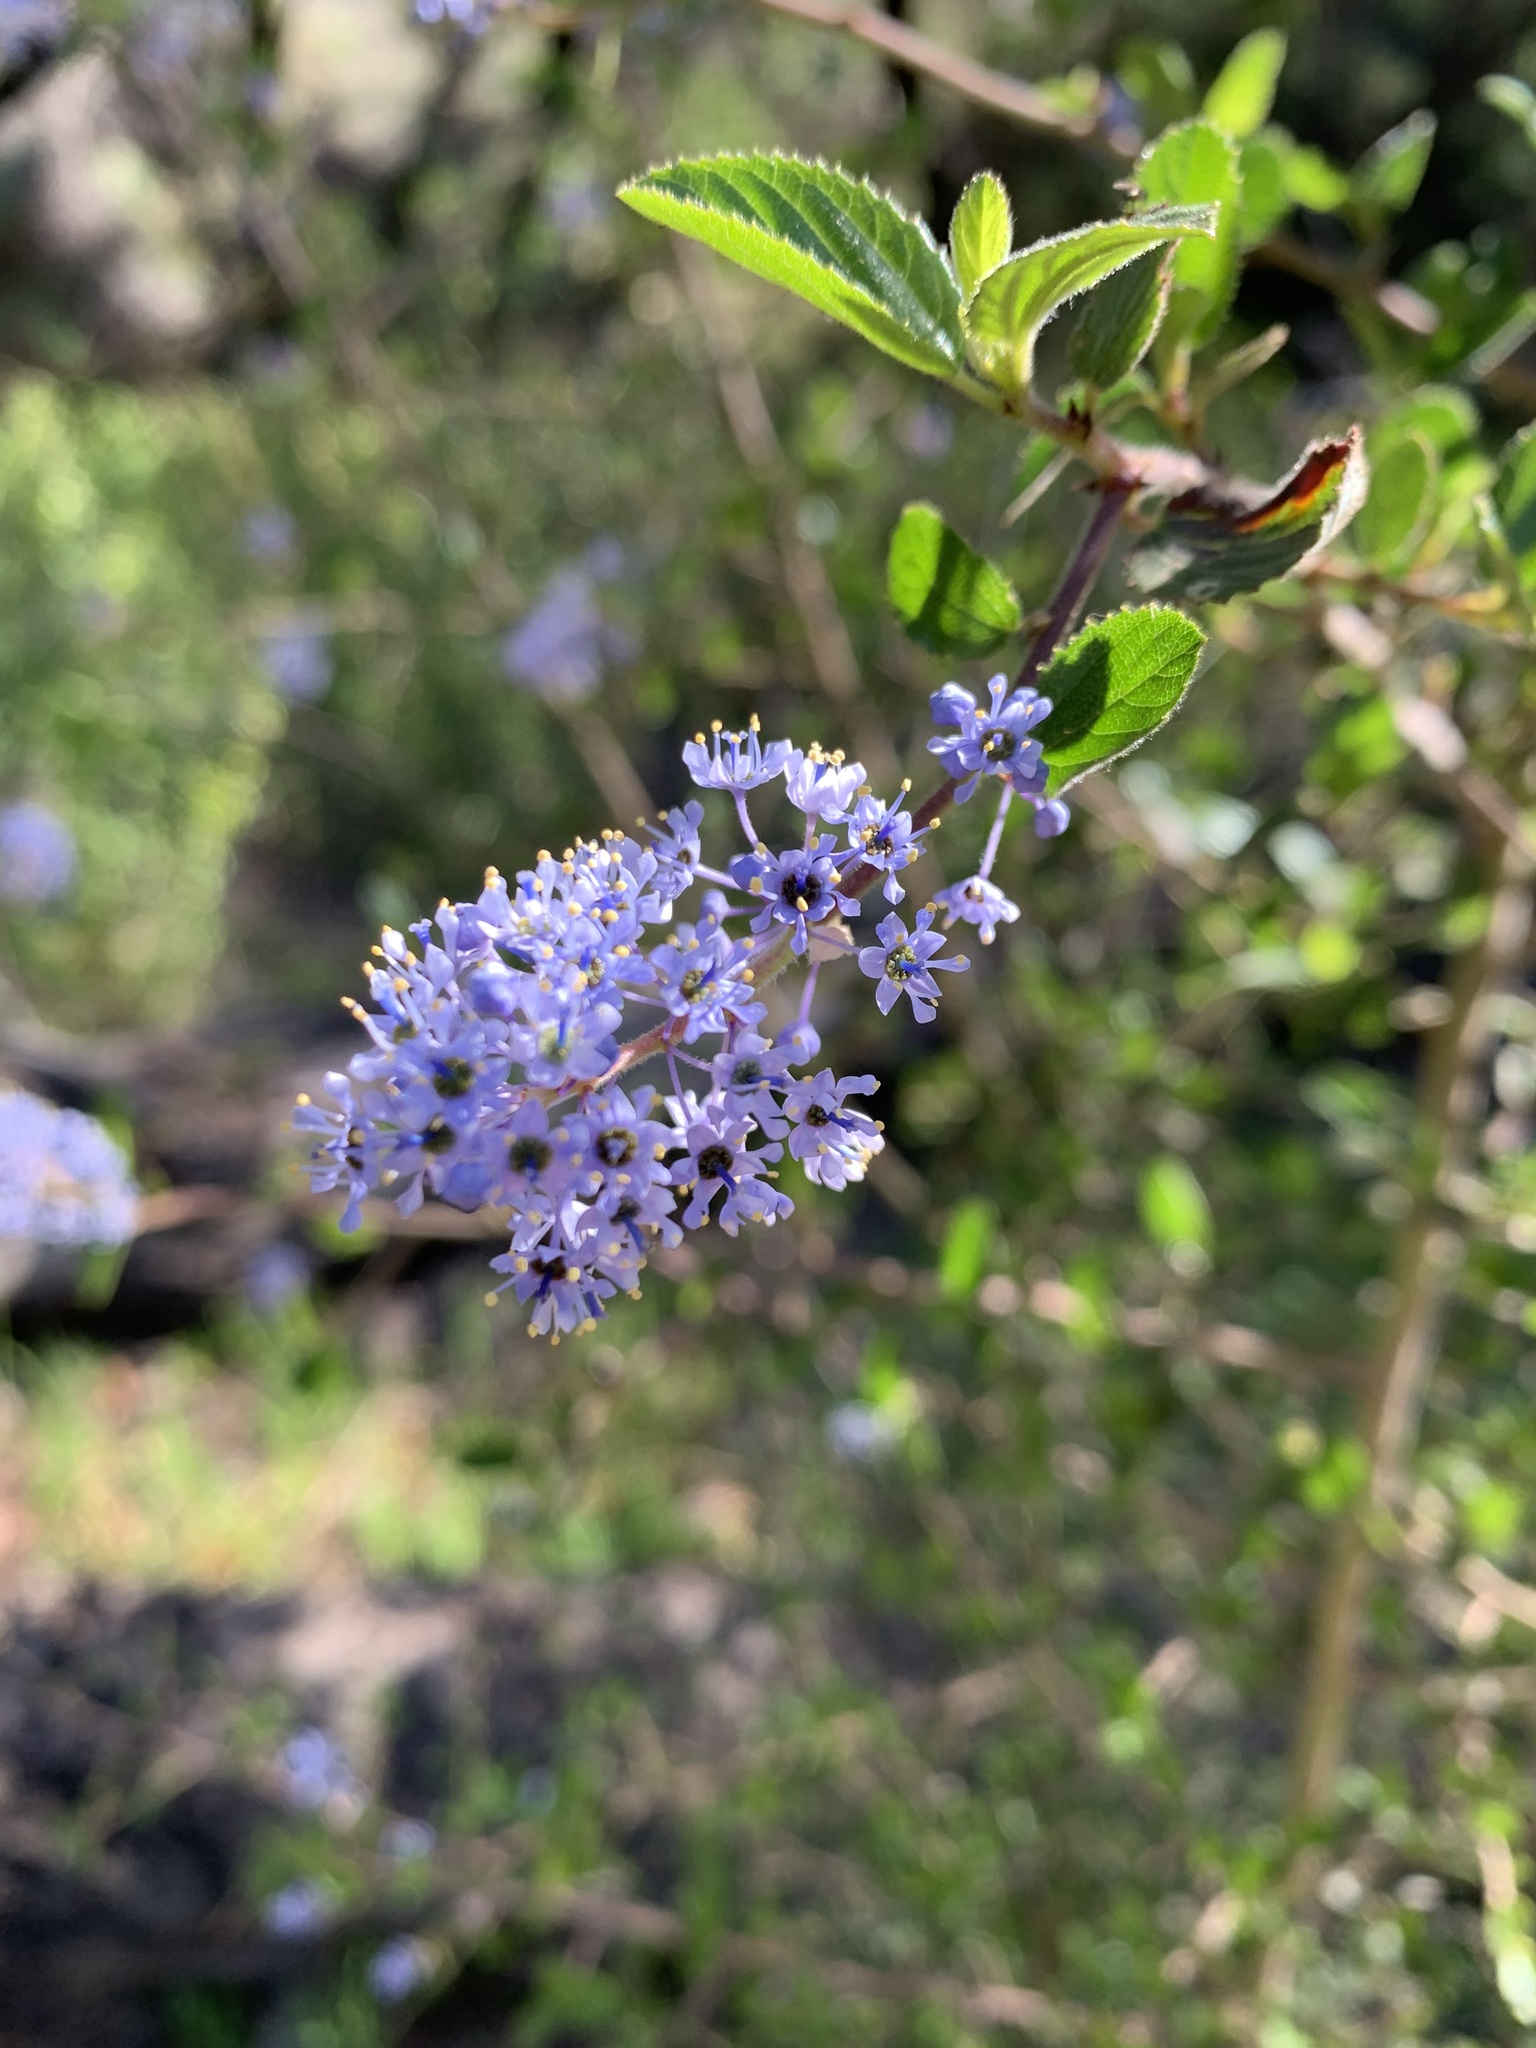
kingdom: Plantae
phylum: Tracheophyta
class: Magnoliopsida
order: Rosales
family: Rhamnaceae
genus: Ceanothus
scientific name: Ceanothus oliganthus
